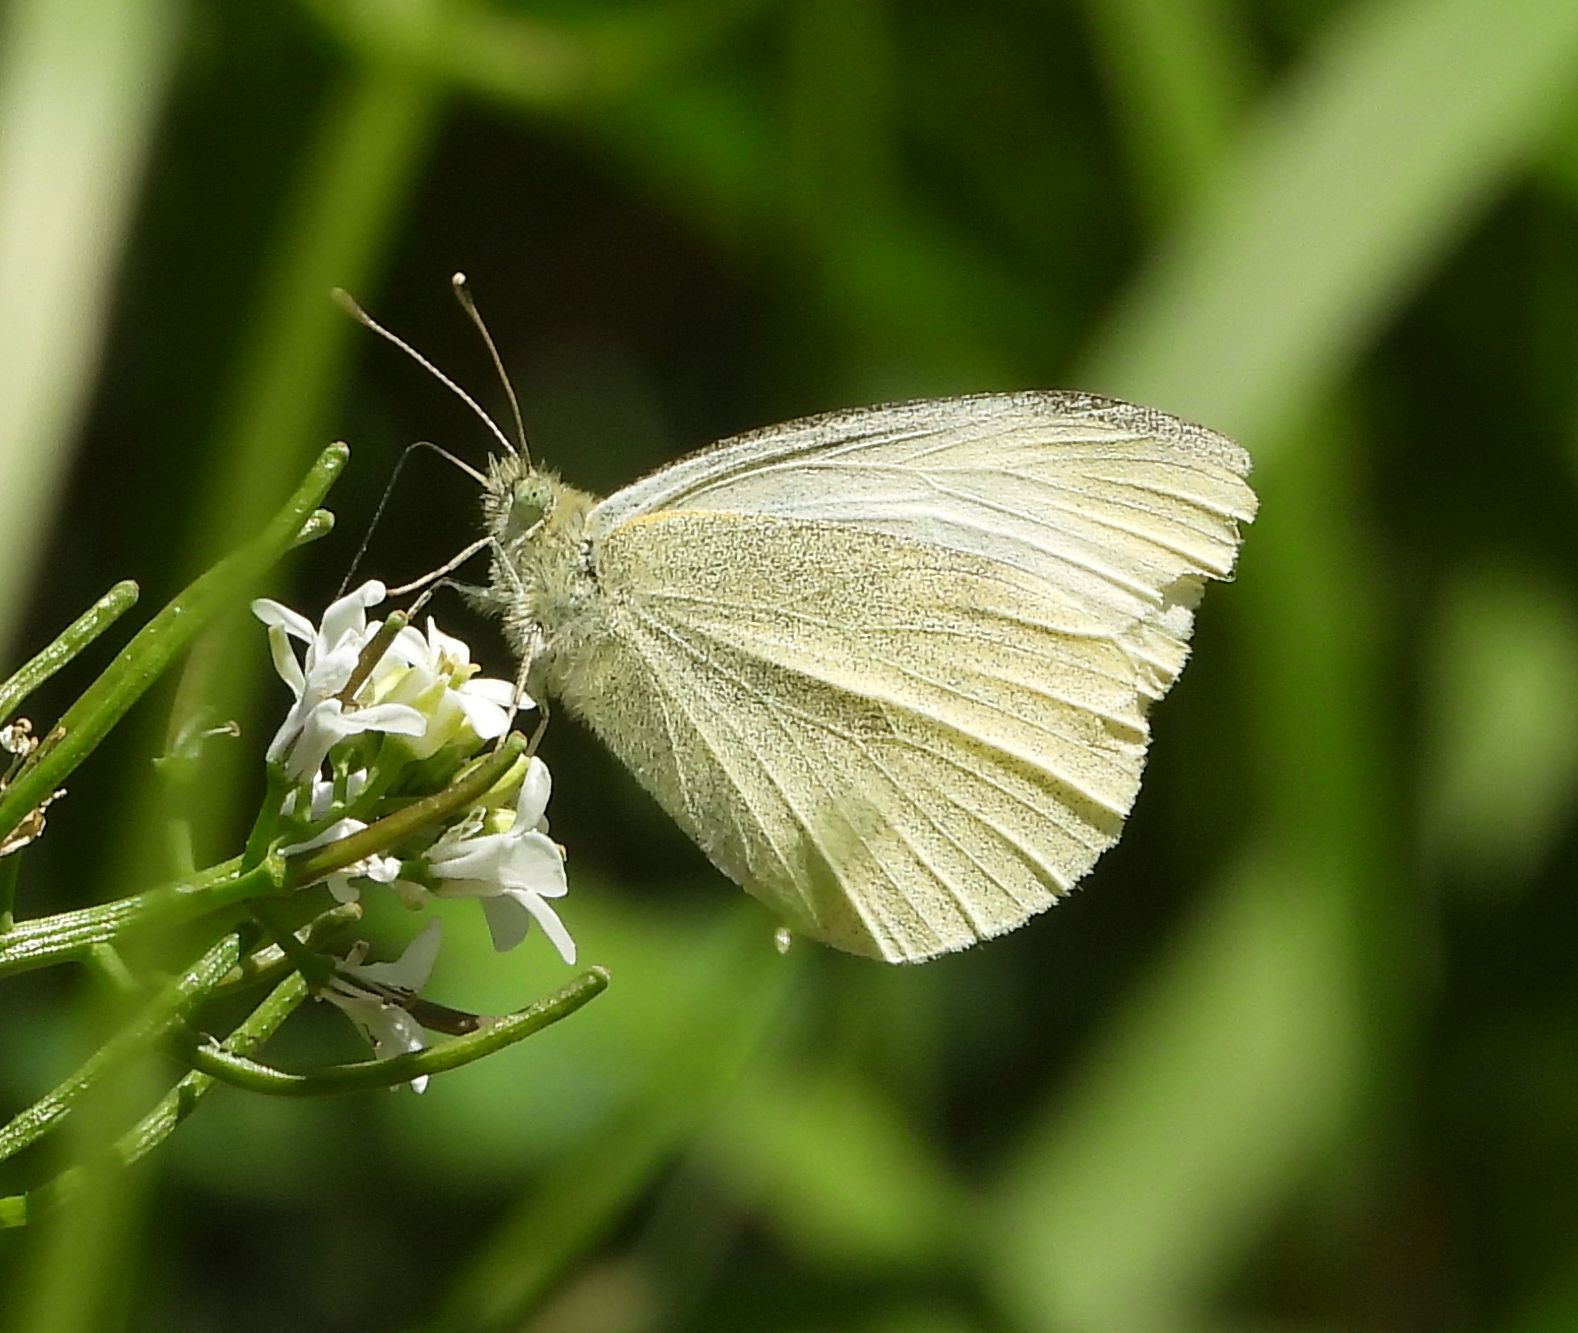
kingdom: Animalia
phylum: Arthropoda
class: Insecta
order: Lepidoptera
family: Pieridae
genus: Pieris
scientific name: Pieris rapae
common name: Small white
